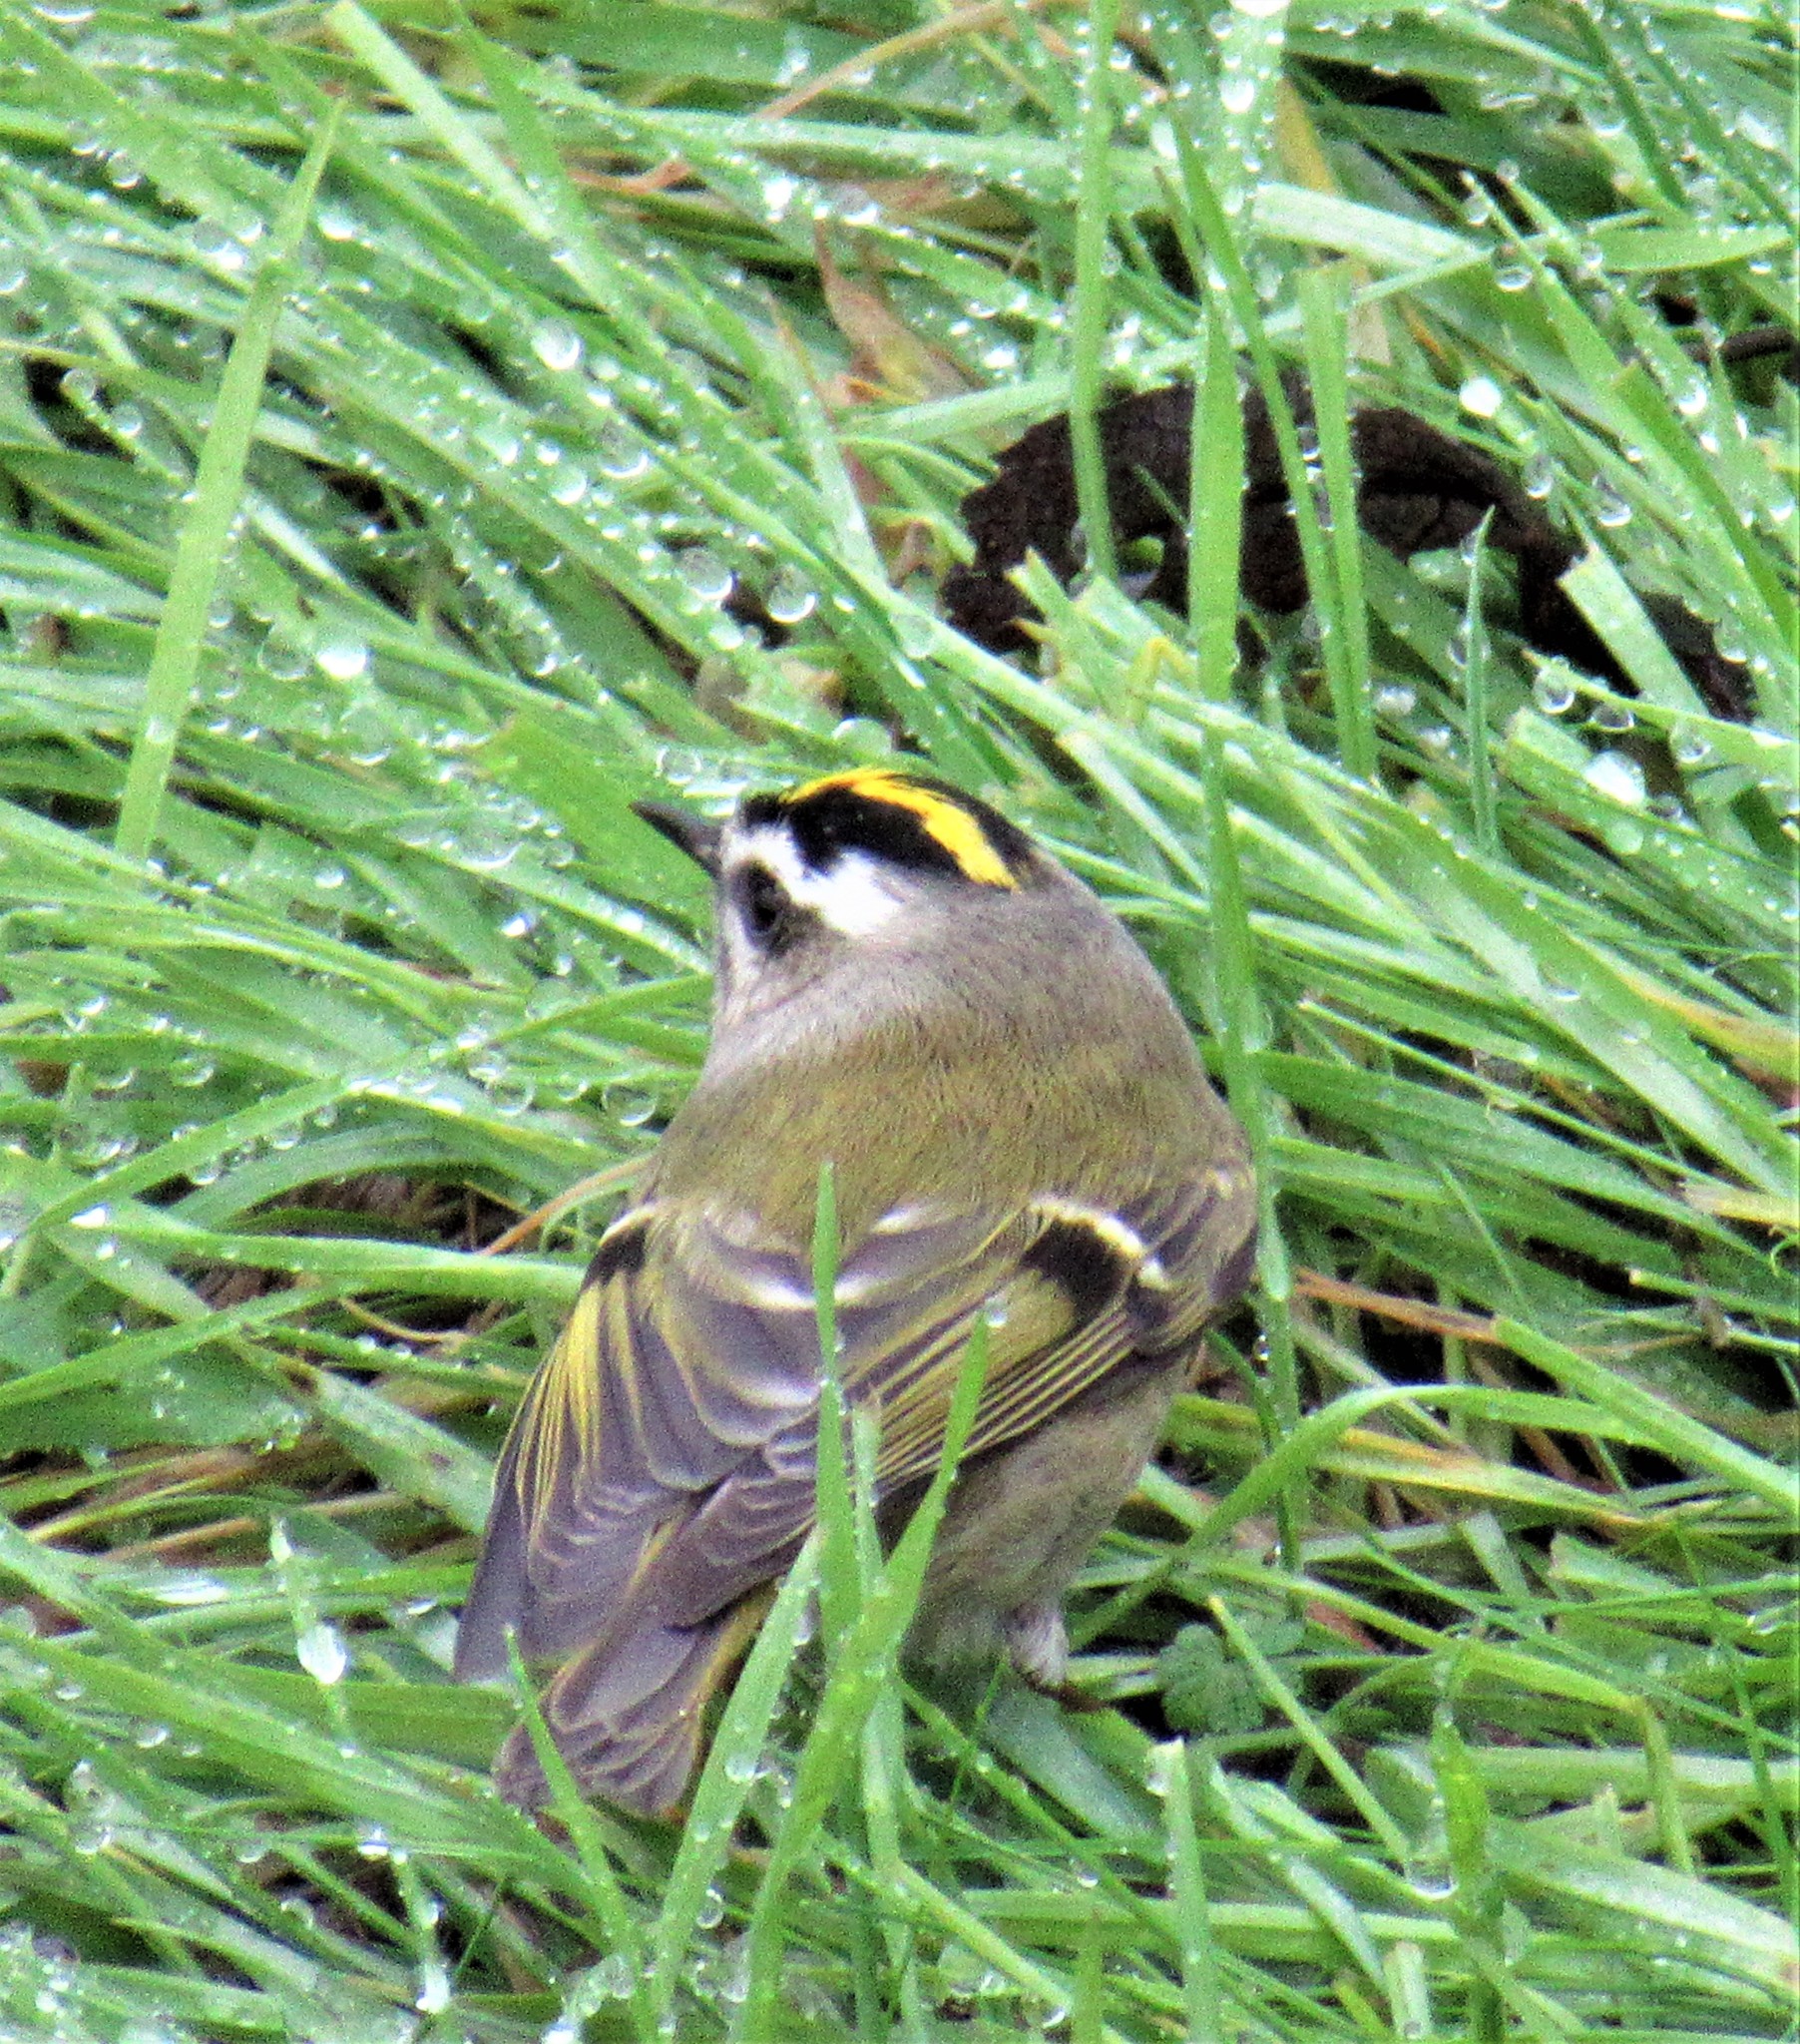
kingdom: Animalia
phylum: Chordata
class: Aves
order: Passeriformes
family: Regulidae
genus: Regulus
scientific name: Regulus satrapa
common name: Golden-crowned kinglet
